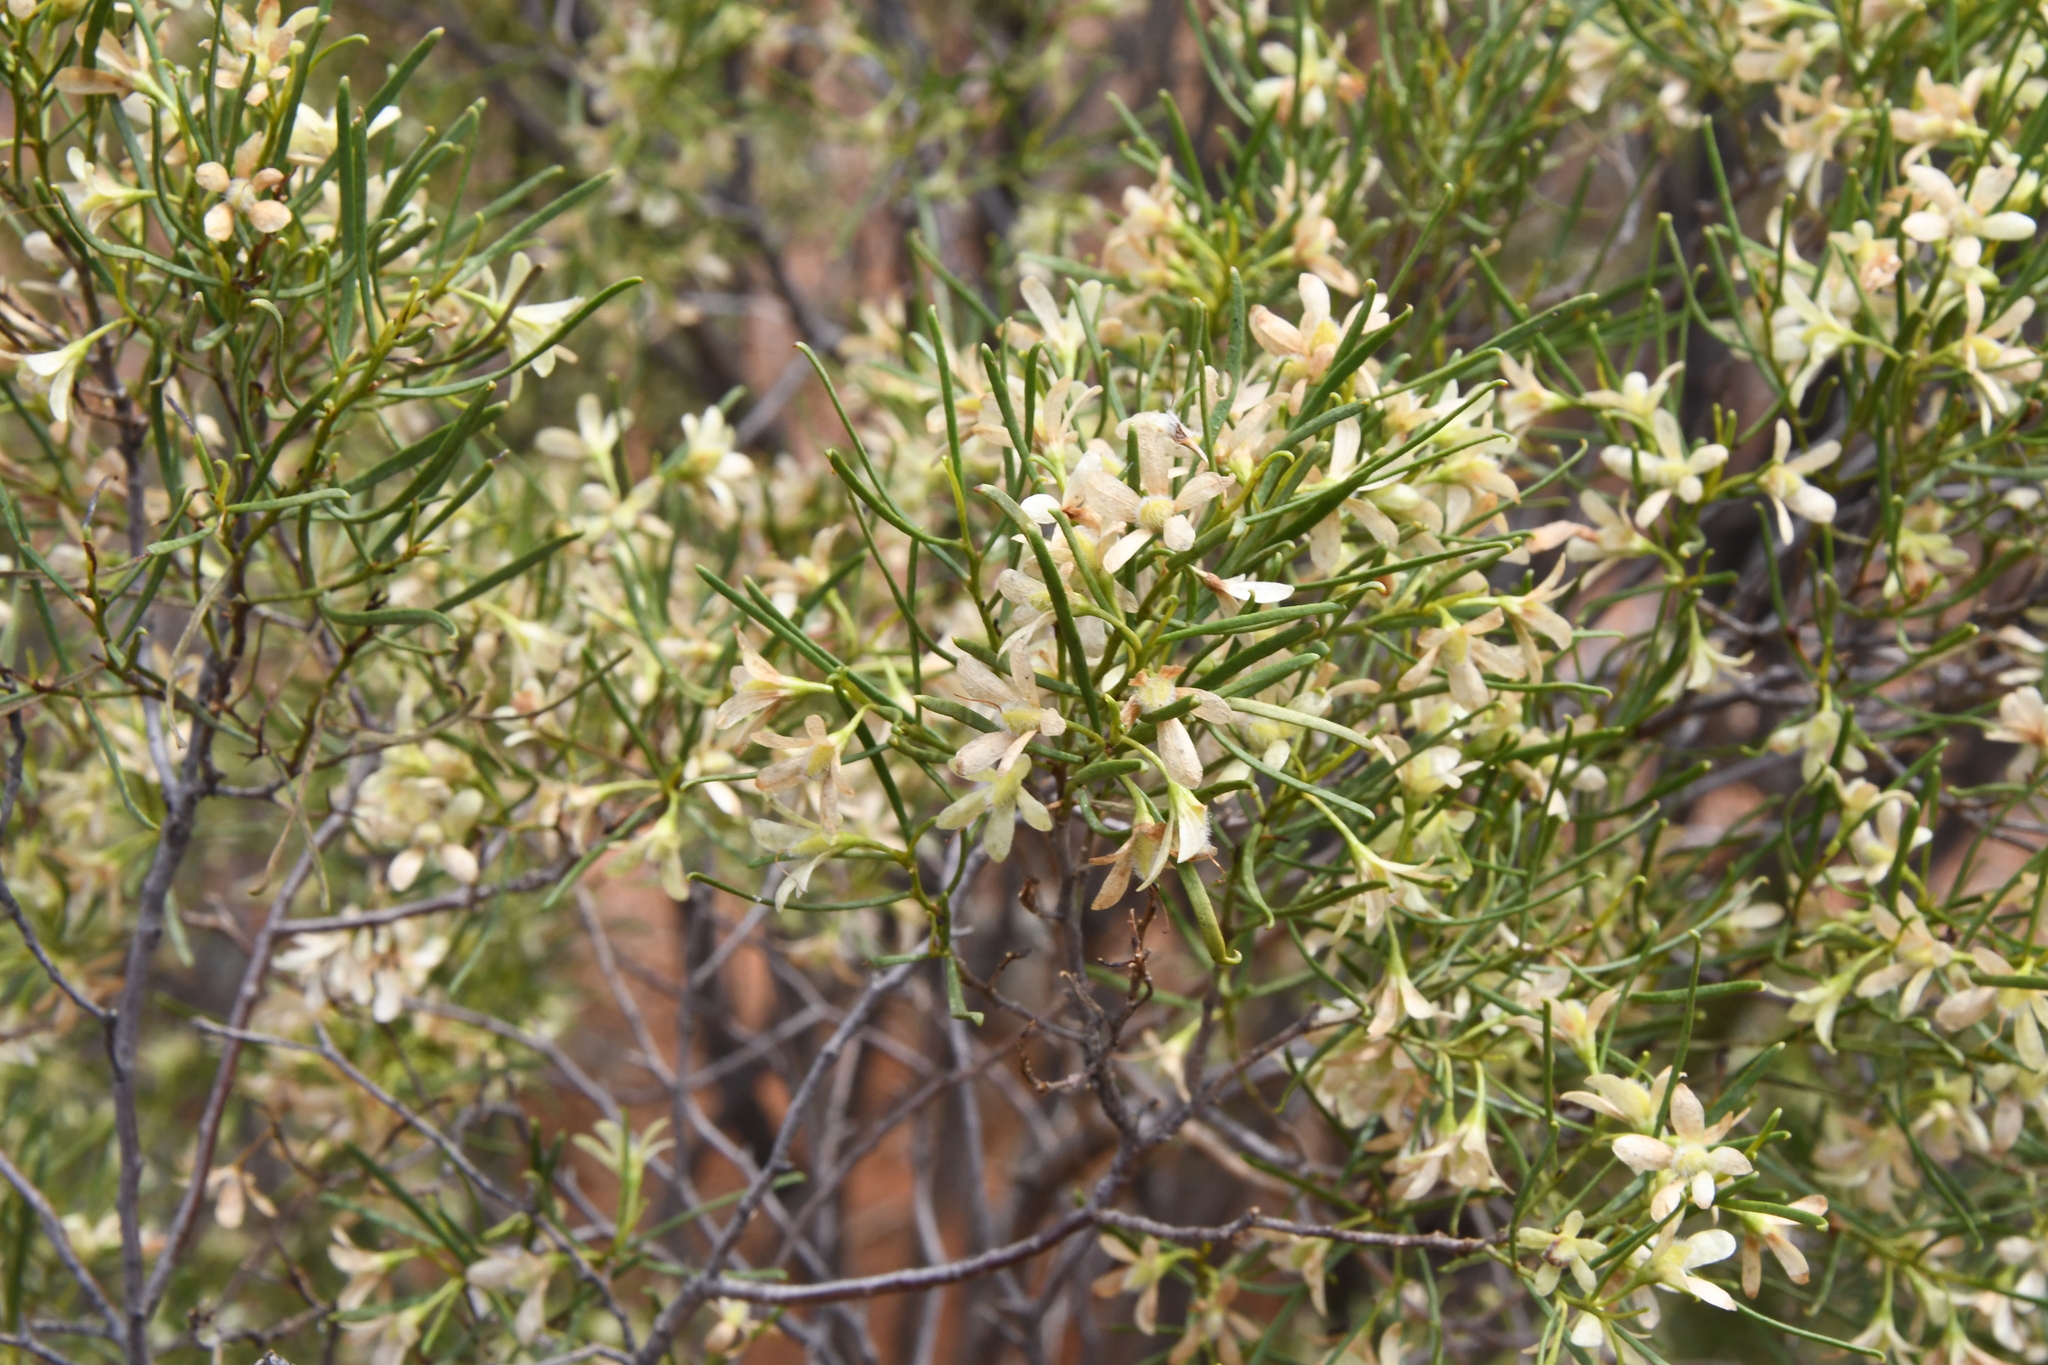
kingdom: Plantae
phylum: Tracheophyta
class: Magnoliopsida
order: Lamiales
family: Scrophulariaceae
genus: Eremophila
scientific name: Eremophila sturtii
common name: Narrow-leaf emubush
